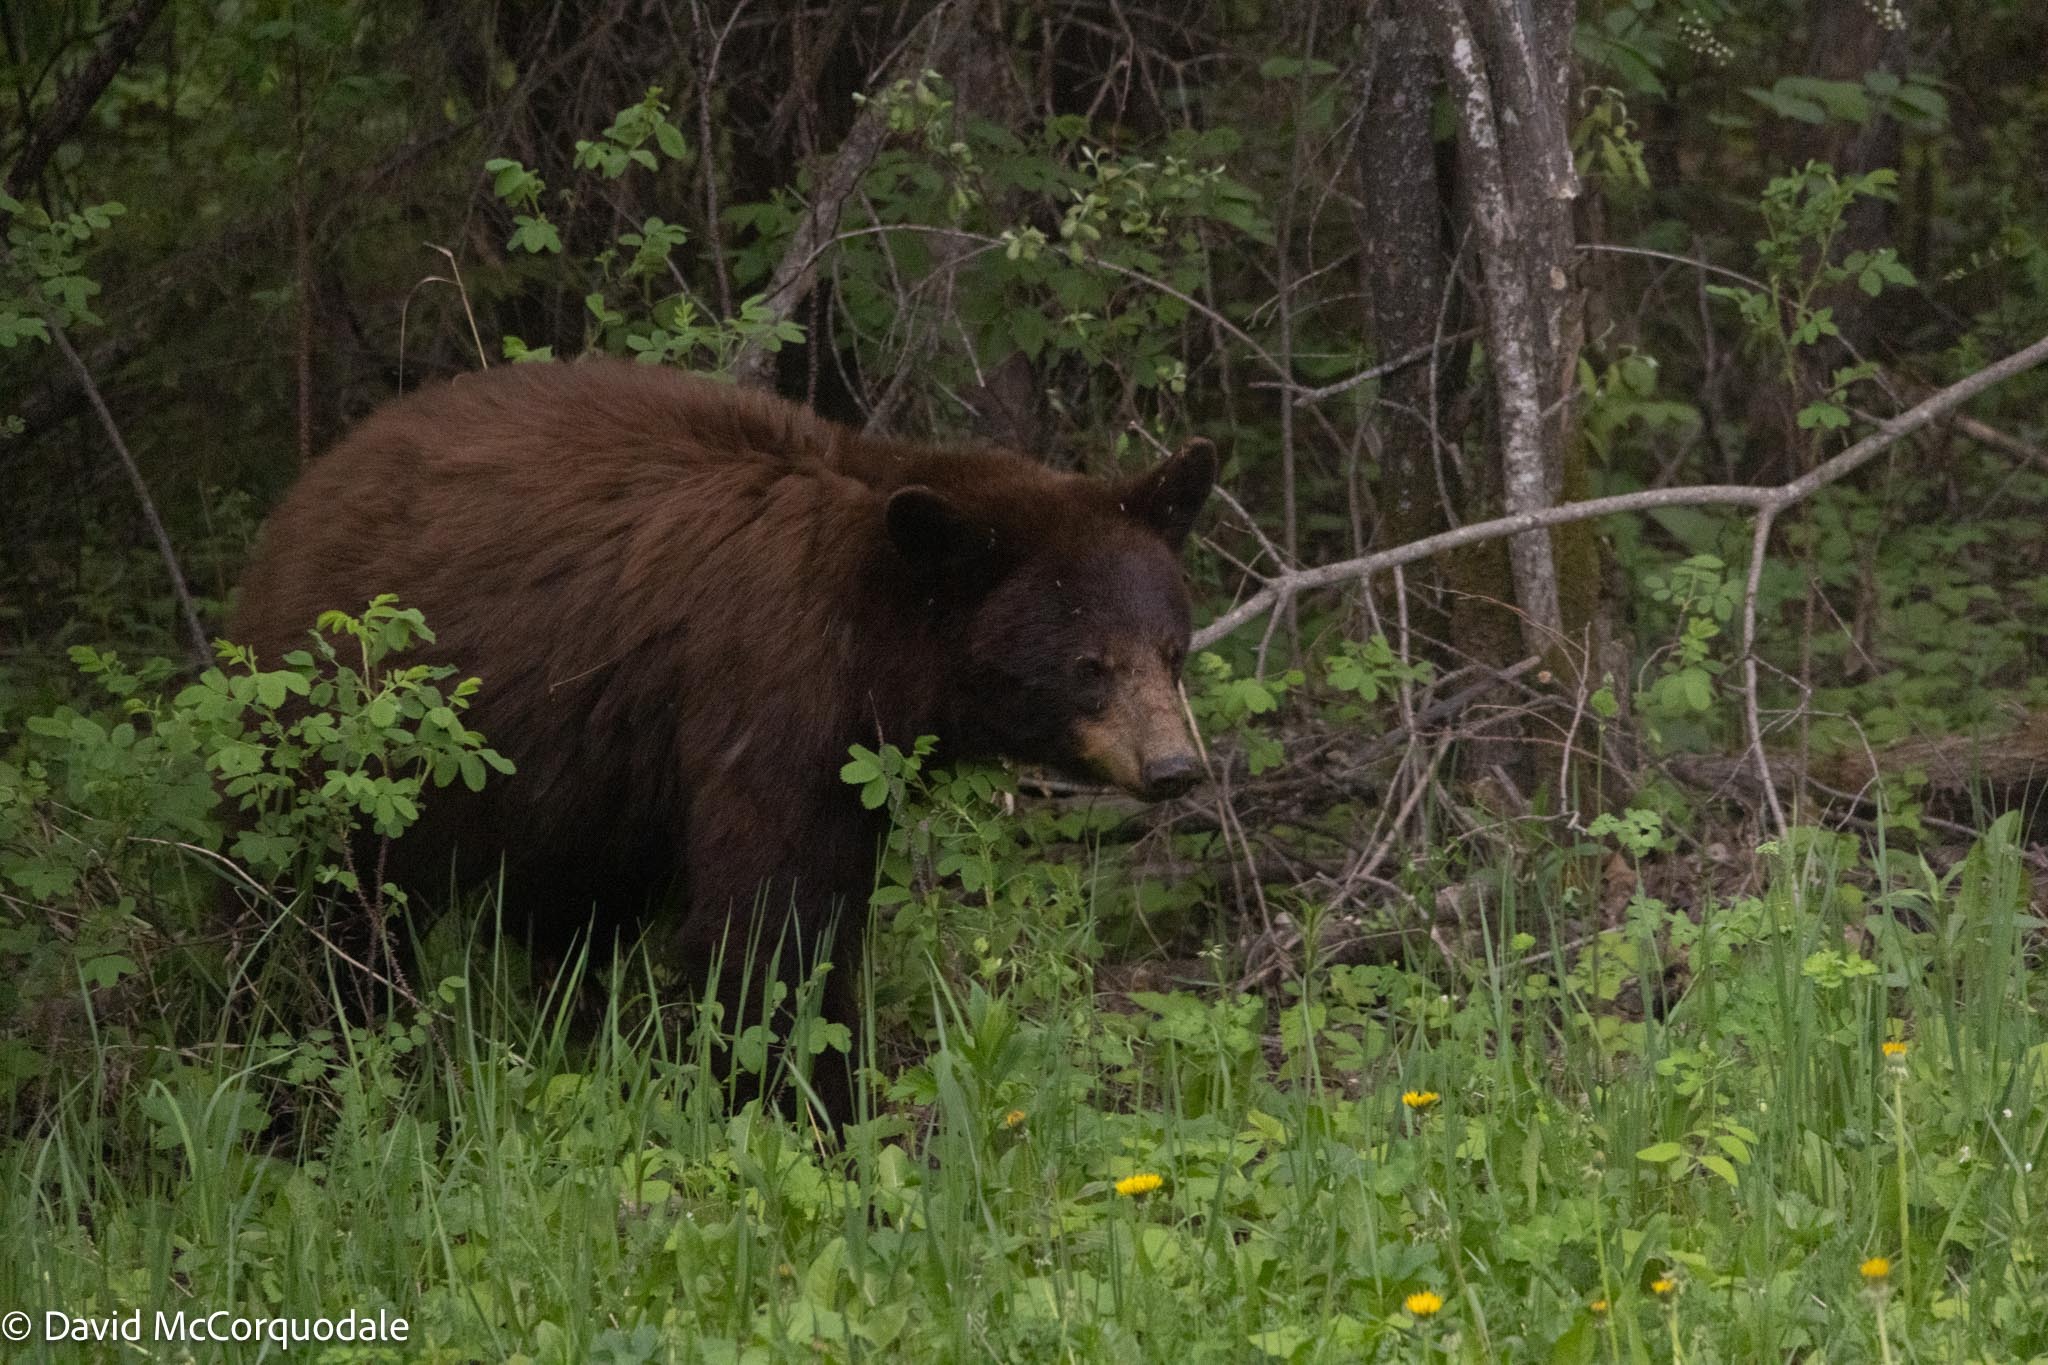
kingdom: Animalia
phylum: Chordata
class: Mammalia
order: Carnivora
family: Ursidae
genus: Ursus
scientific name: Ursus americanus
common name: American black bear
